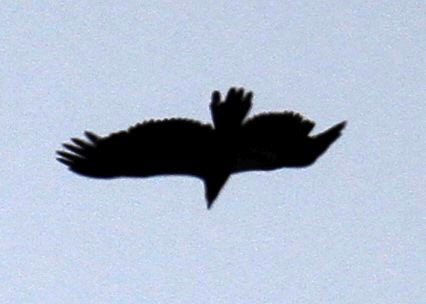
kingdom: Animalia
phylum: Chordata
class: Aves
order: Accipitriformes
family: Accipitridae
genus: Haliaeetus
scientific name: Haliaeetus leucocephalus
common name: Bald eagle
